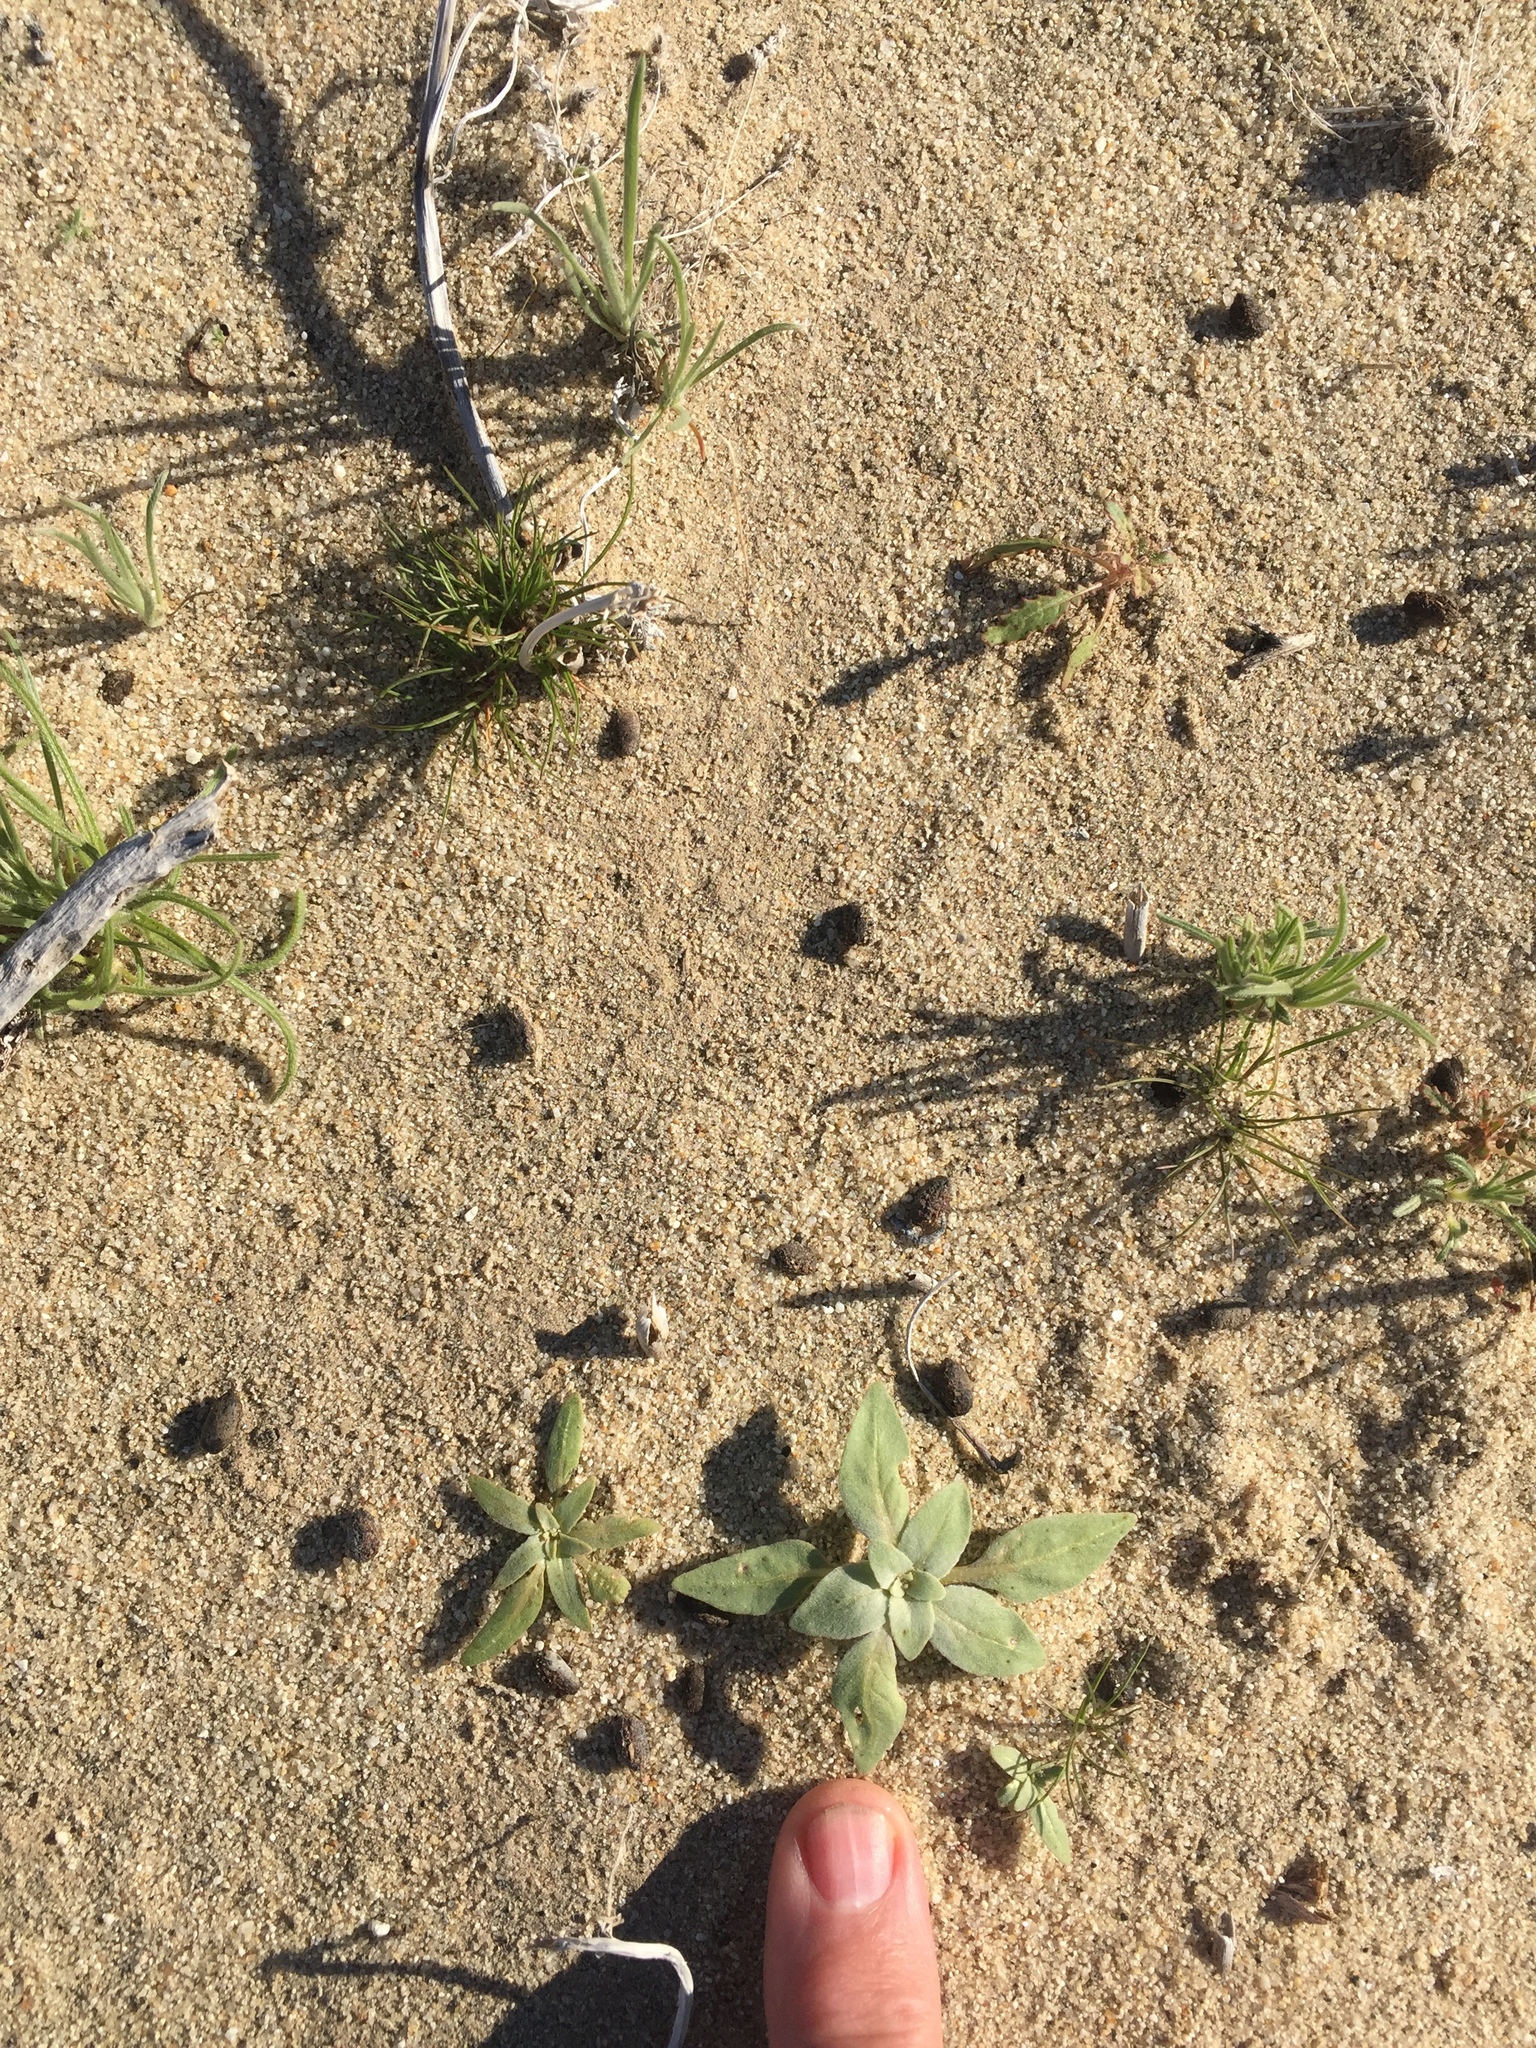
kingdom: Plantae
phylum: Tracheophyta
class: Magnoliopsida
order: Myrtales
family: Onagraceae
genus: Oenothera
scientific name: Oenothera deltoides
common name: Basket evening-primrose
